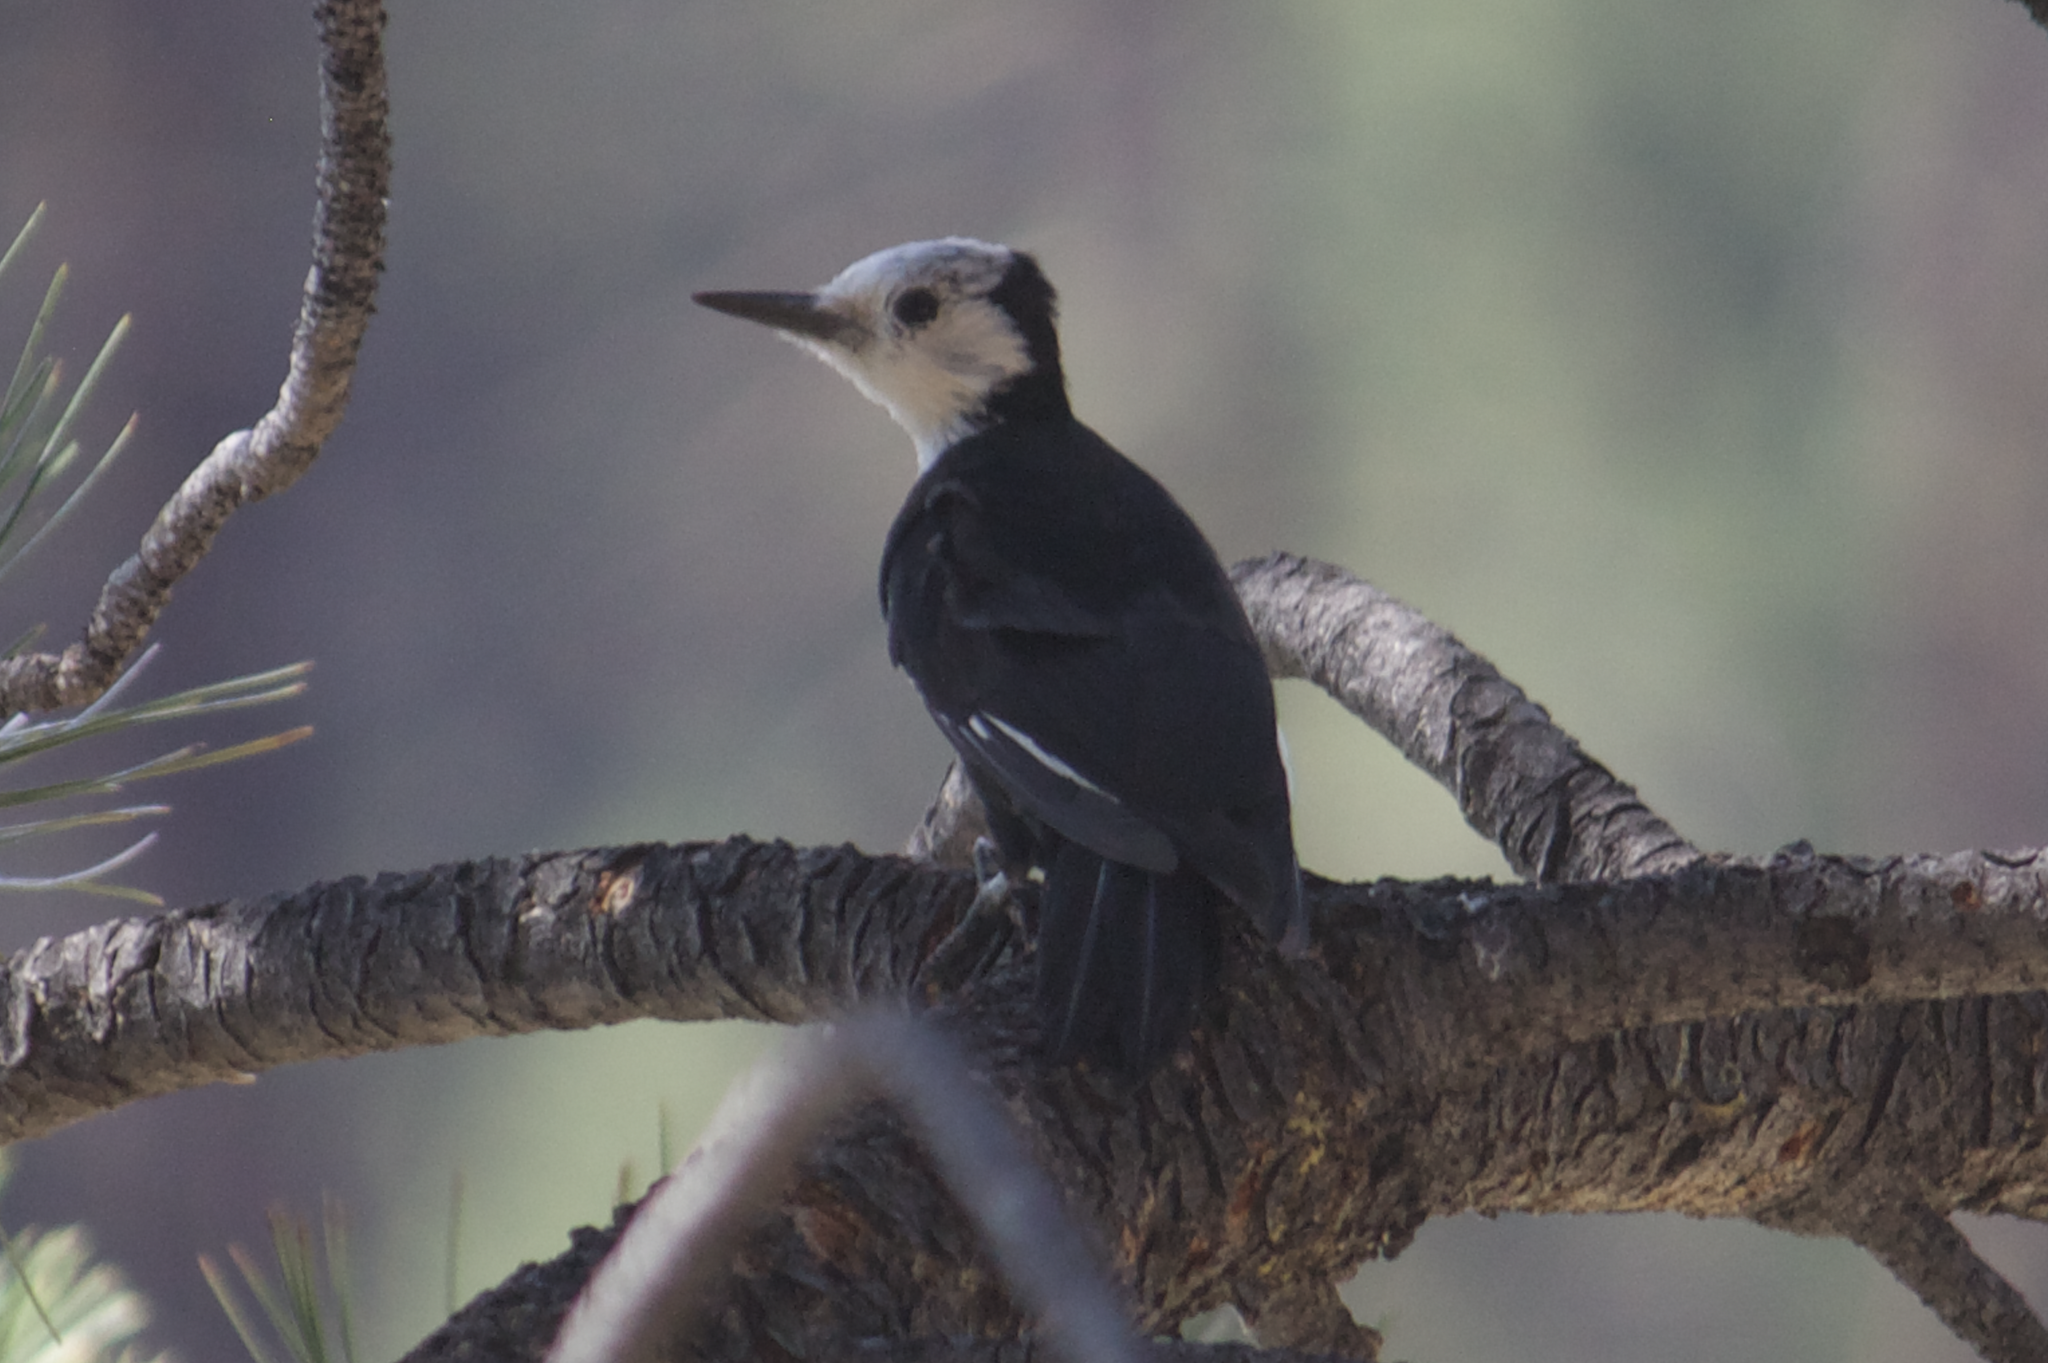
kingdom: Animalia
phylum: Chordata
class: Aves
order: Piciformes
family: Picidae
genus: Leuconotopicus
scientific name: Leuconotopicus albolarvatus
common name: White-headed woodpecker
